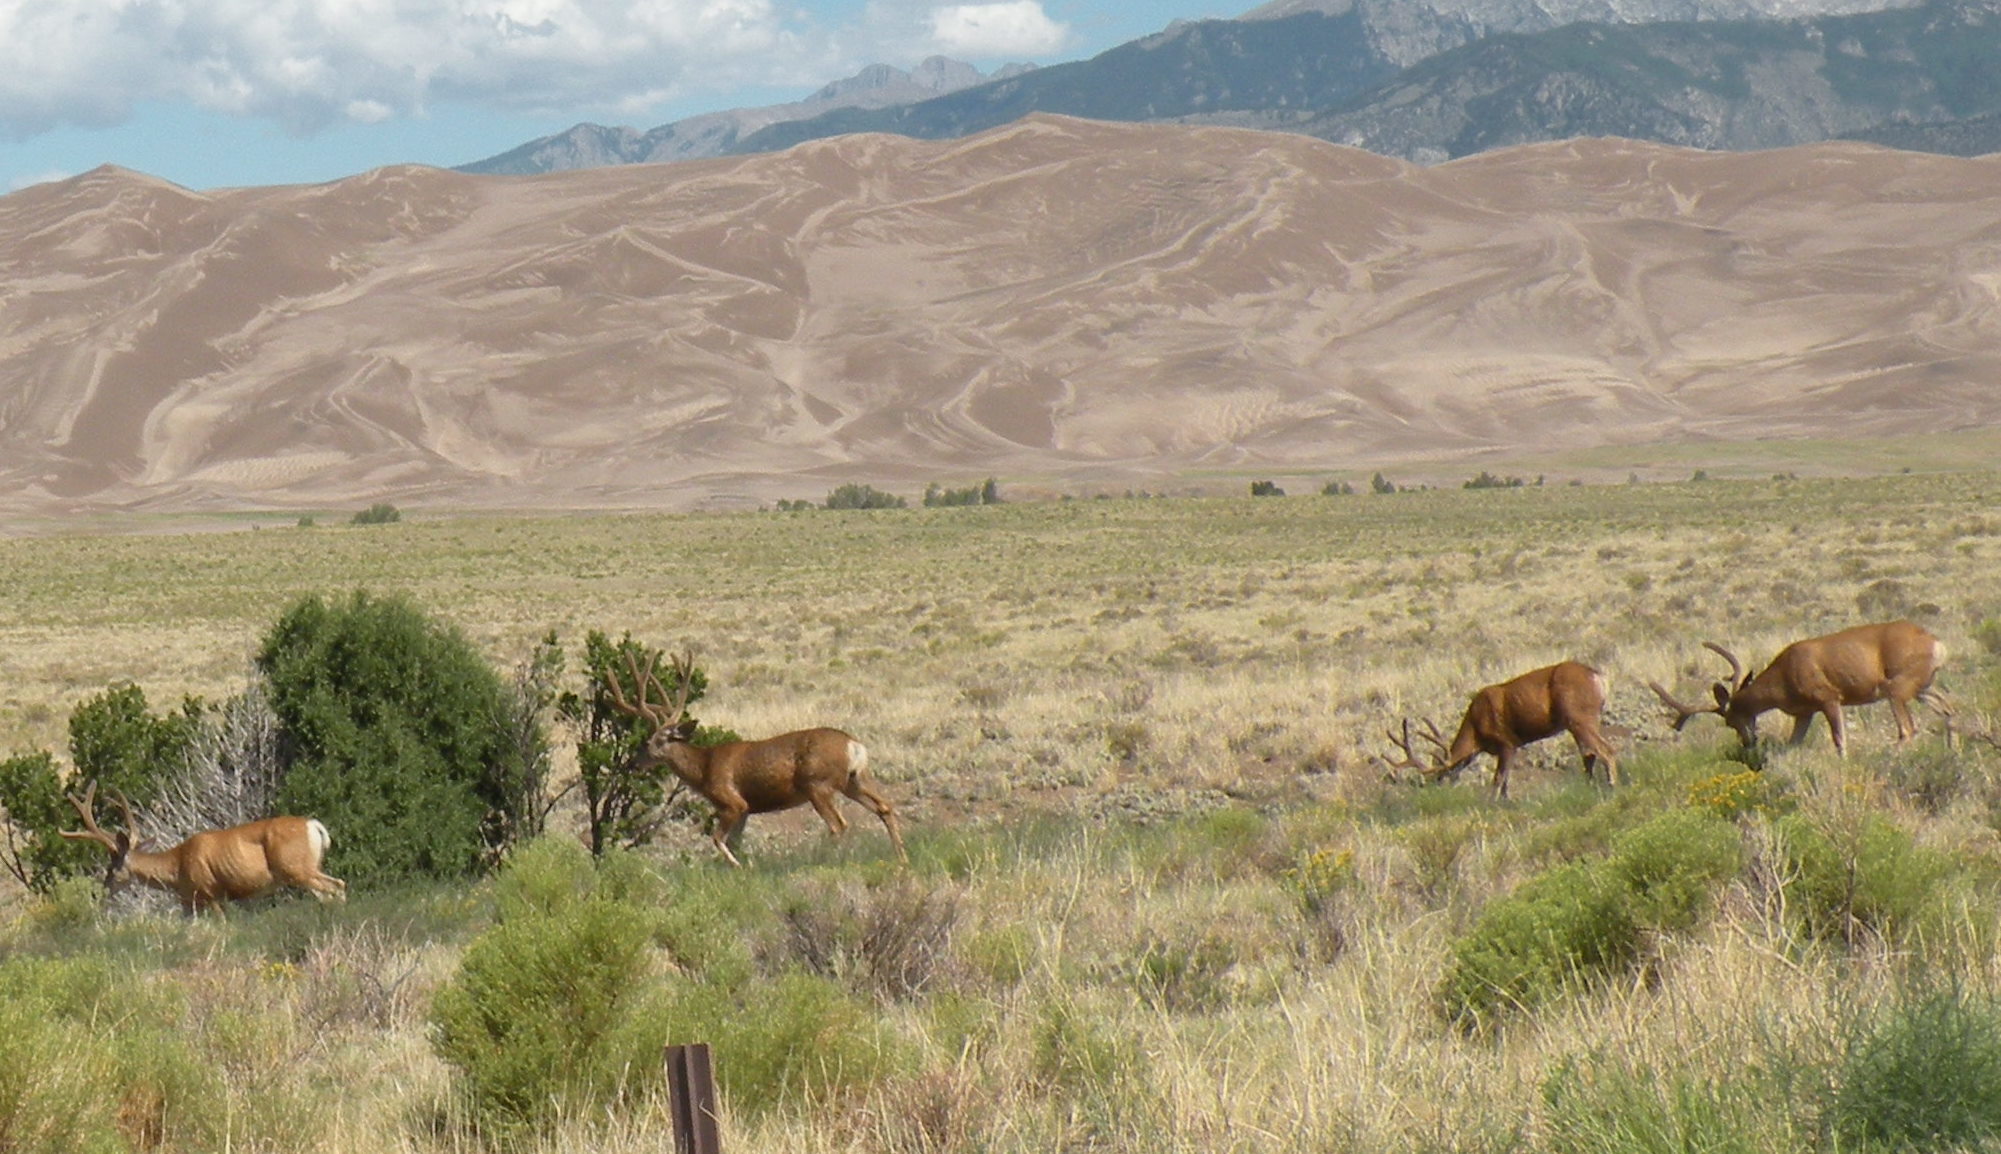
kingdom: Animalia
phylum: Chordata
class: Mammalia
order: Artiodactyla
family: Cervidae
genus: Odocoileus
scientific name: Odocoileus hemionus
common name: Mule deer
